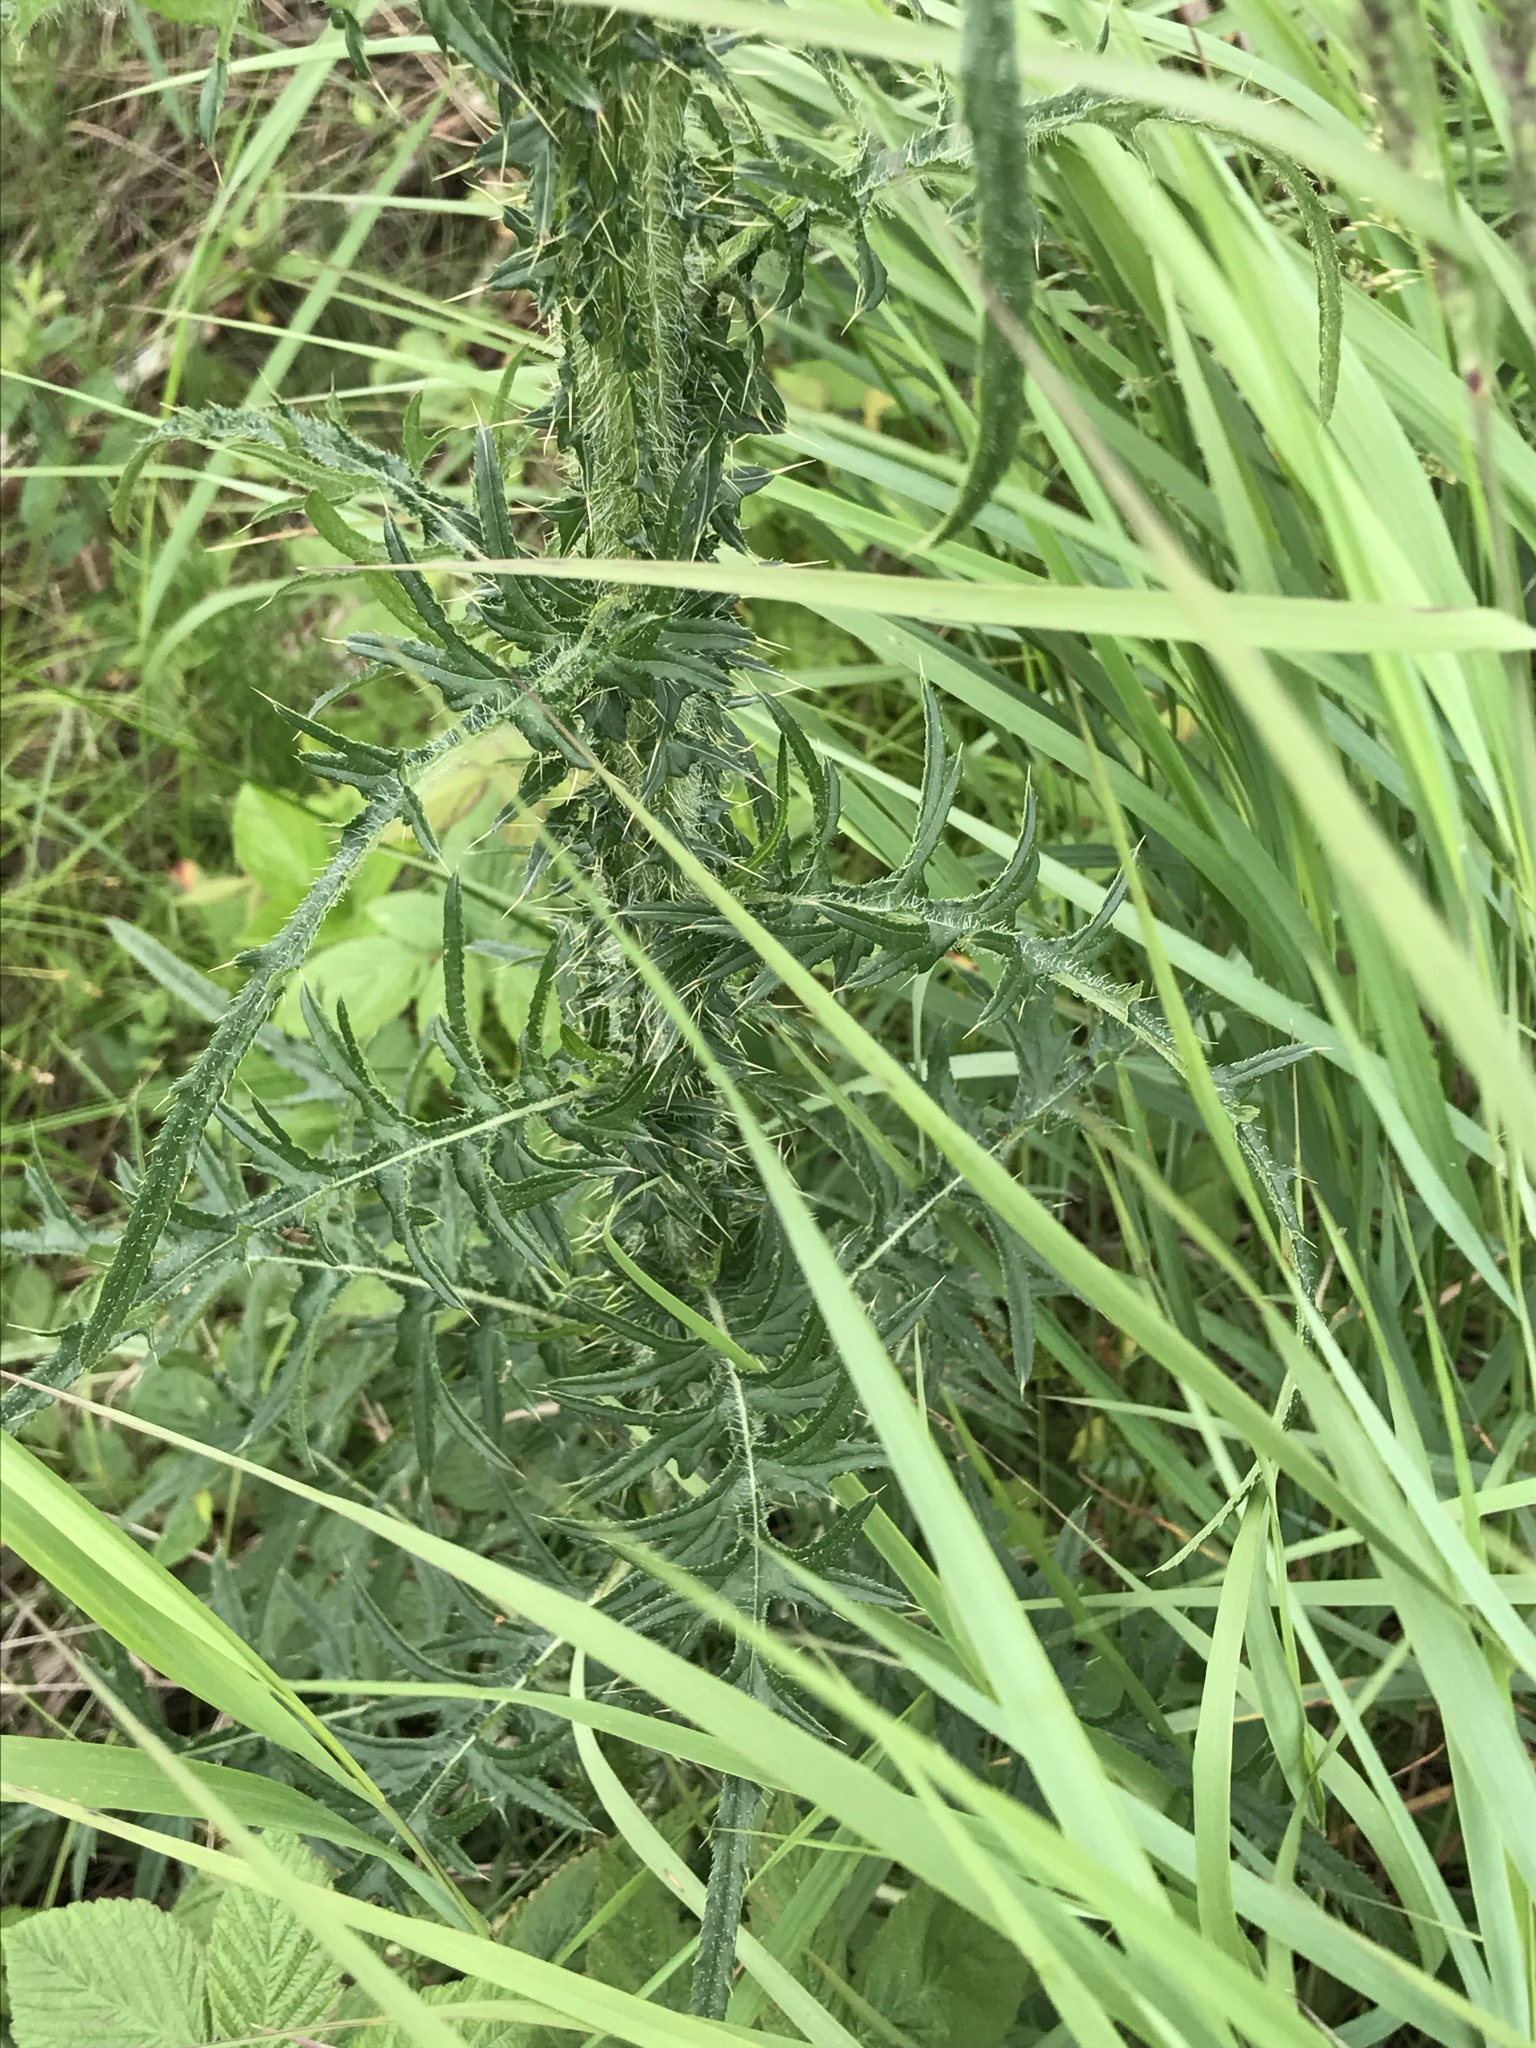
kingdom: Plantae
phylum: Tracheophyta
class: Magnoliopsida
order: Asterales
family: Asteraceae
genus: Cirsium
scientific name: Cirsium palustre
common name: Marsh thistle
